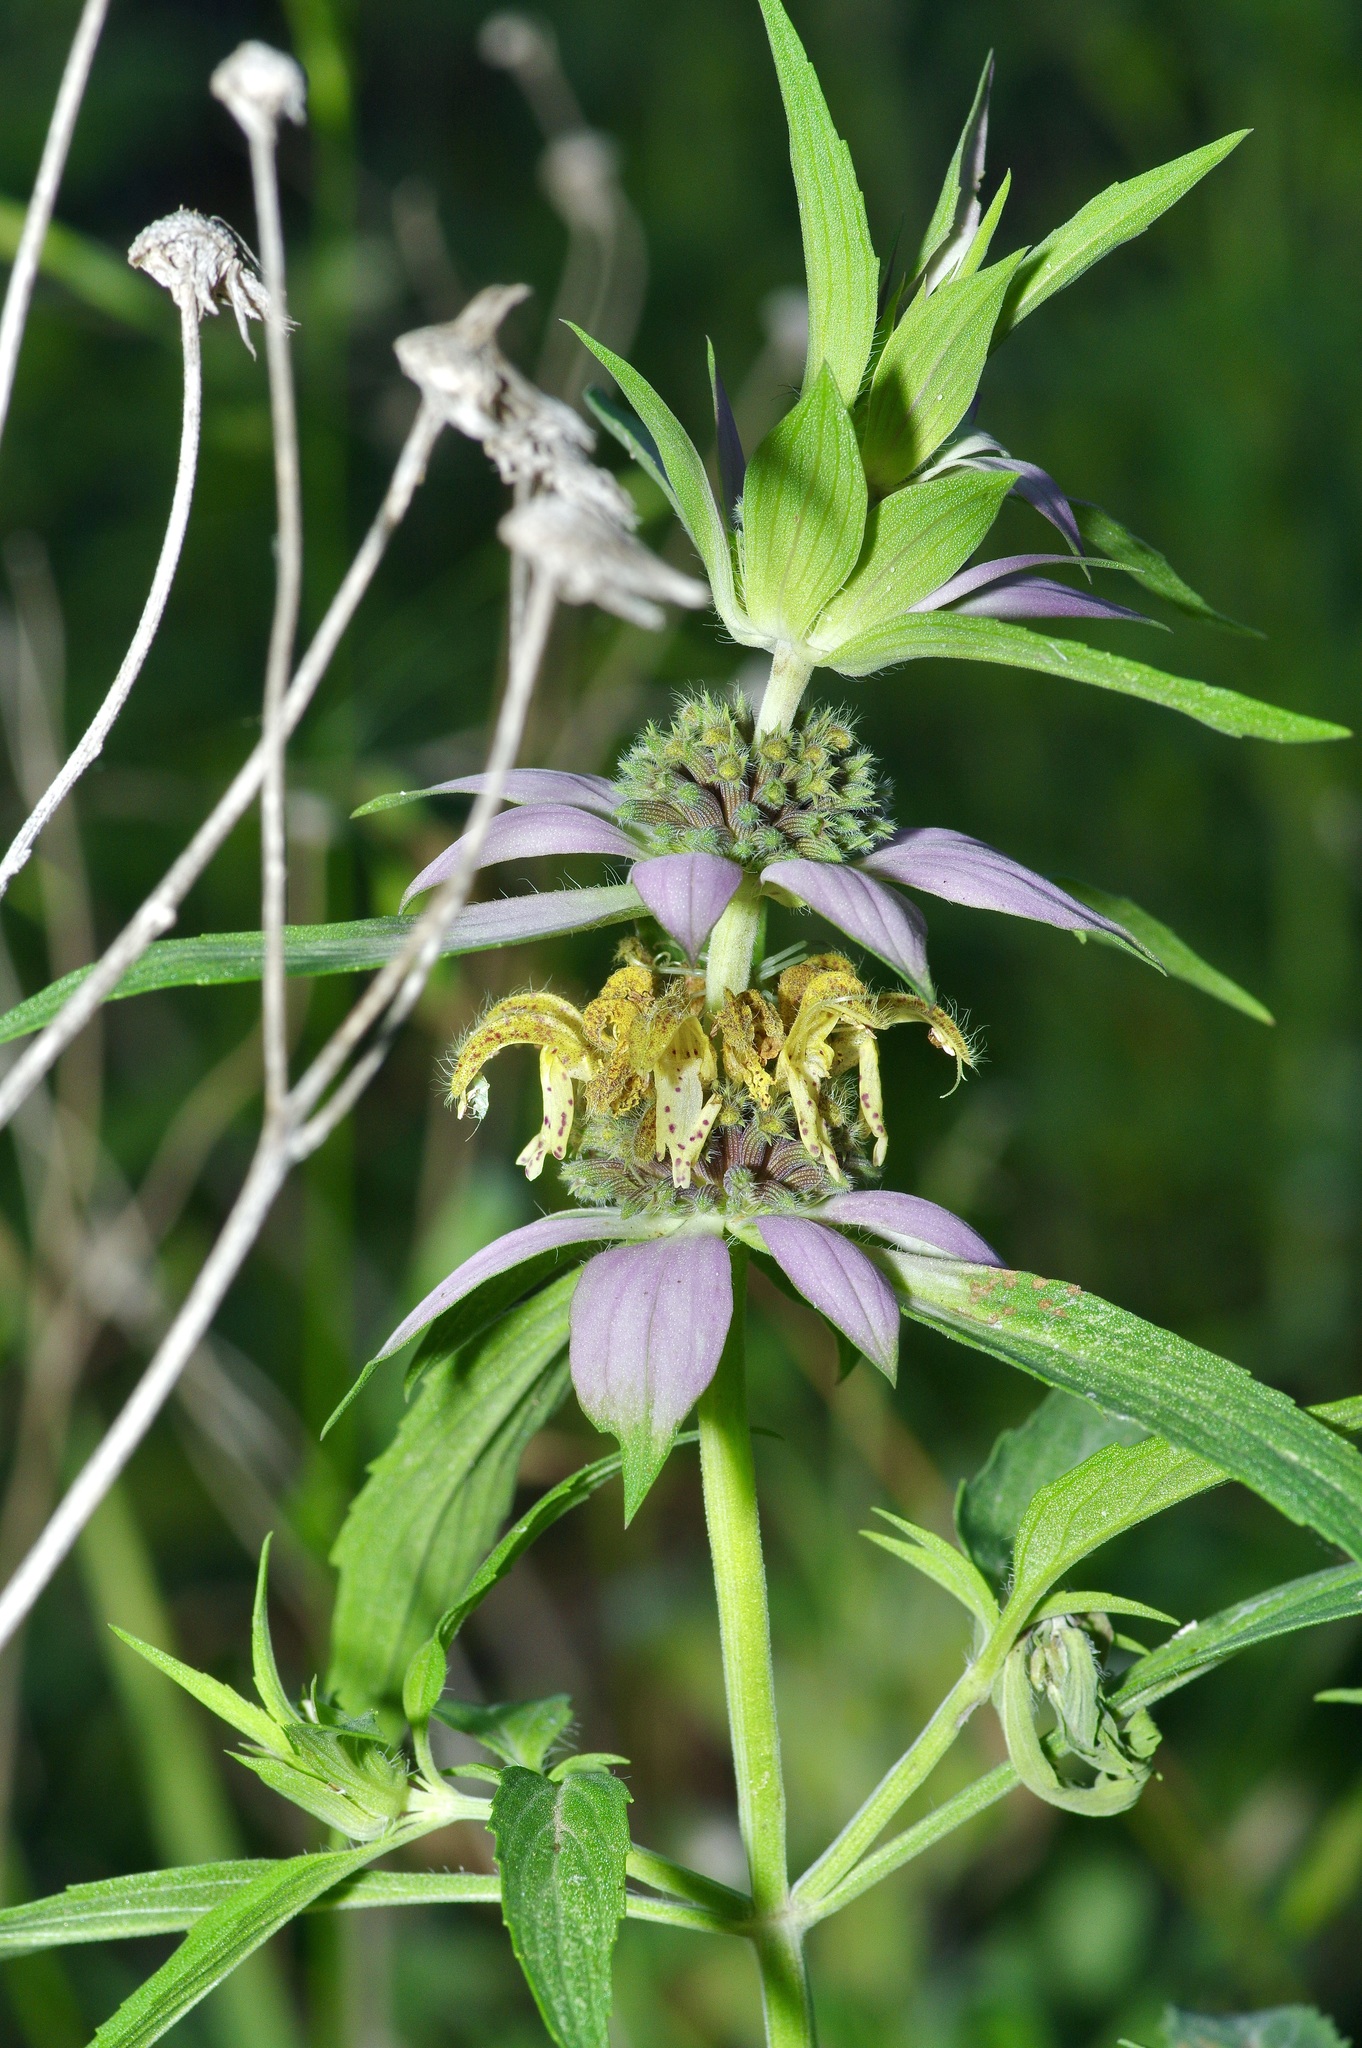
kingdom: Plantae
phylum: Tracheophyta
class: Magnoliopsida
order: Lamiales
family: Lamiaceae
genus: Monarda
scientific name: Monarda punctata
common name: Dotted monarda
